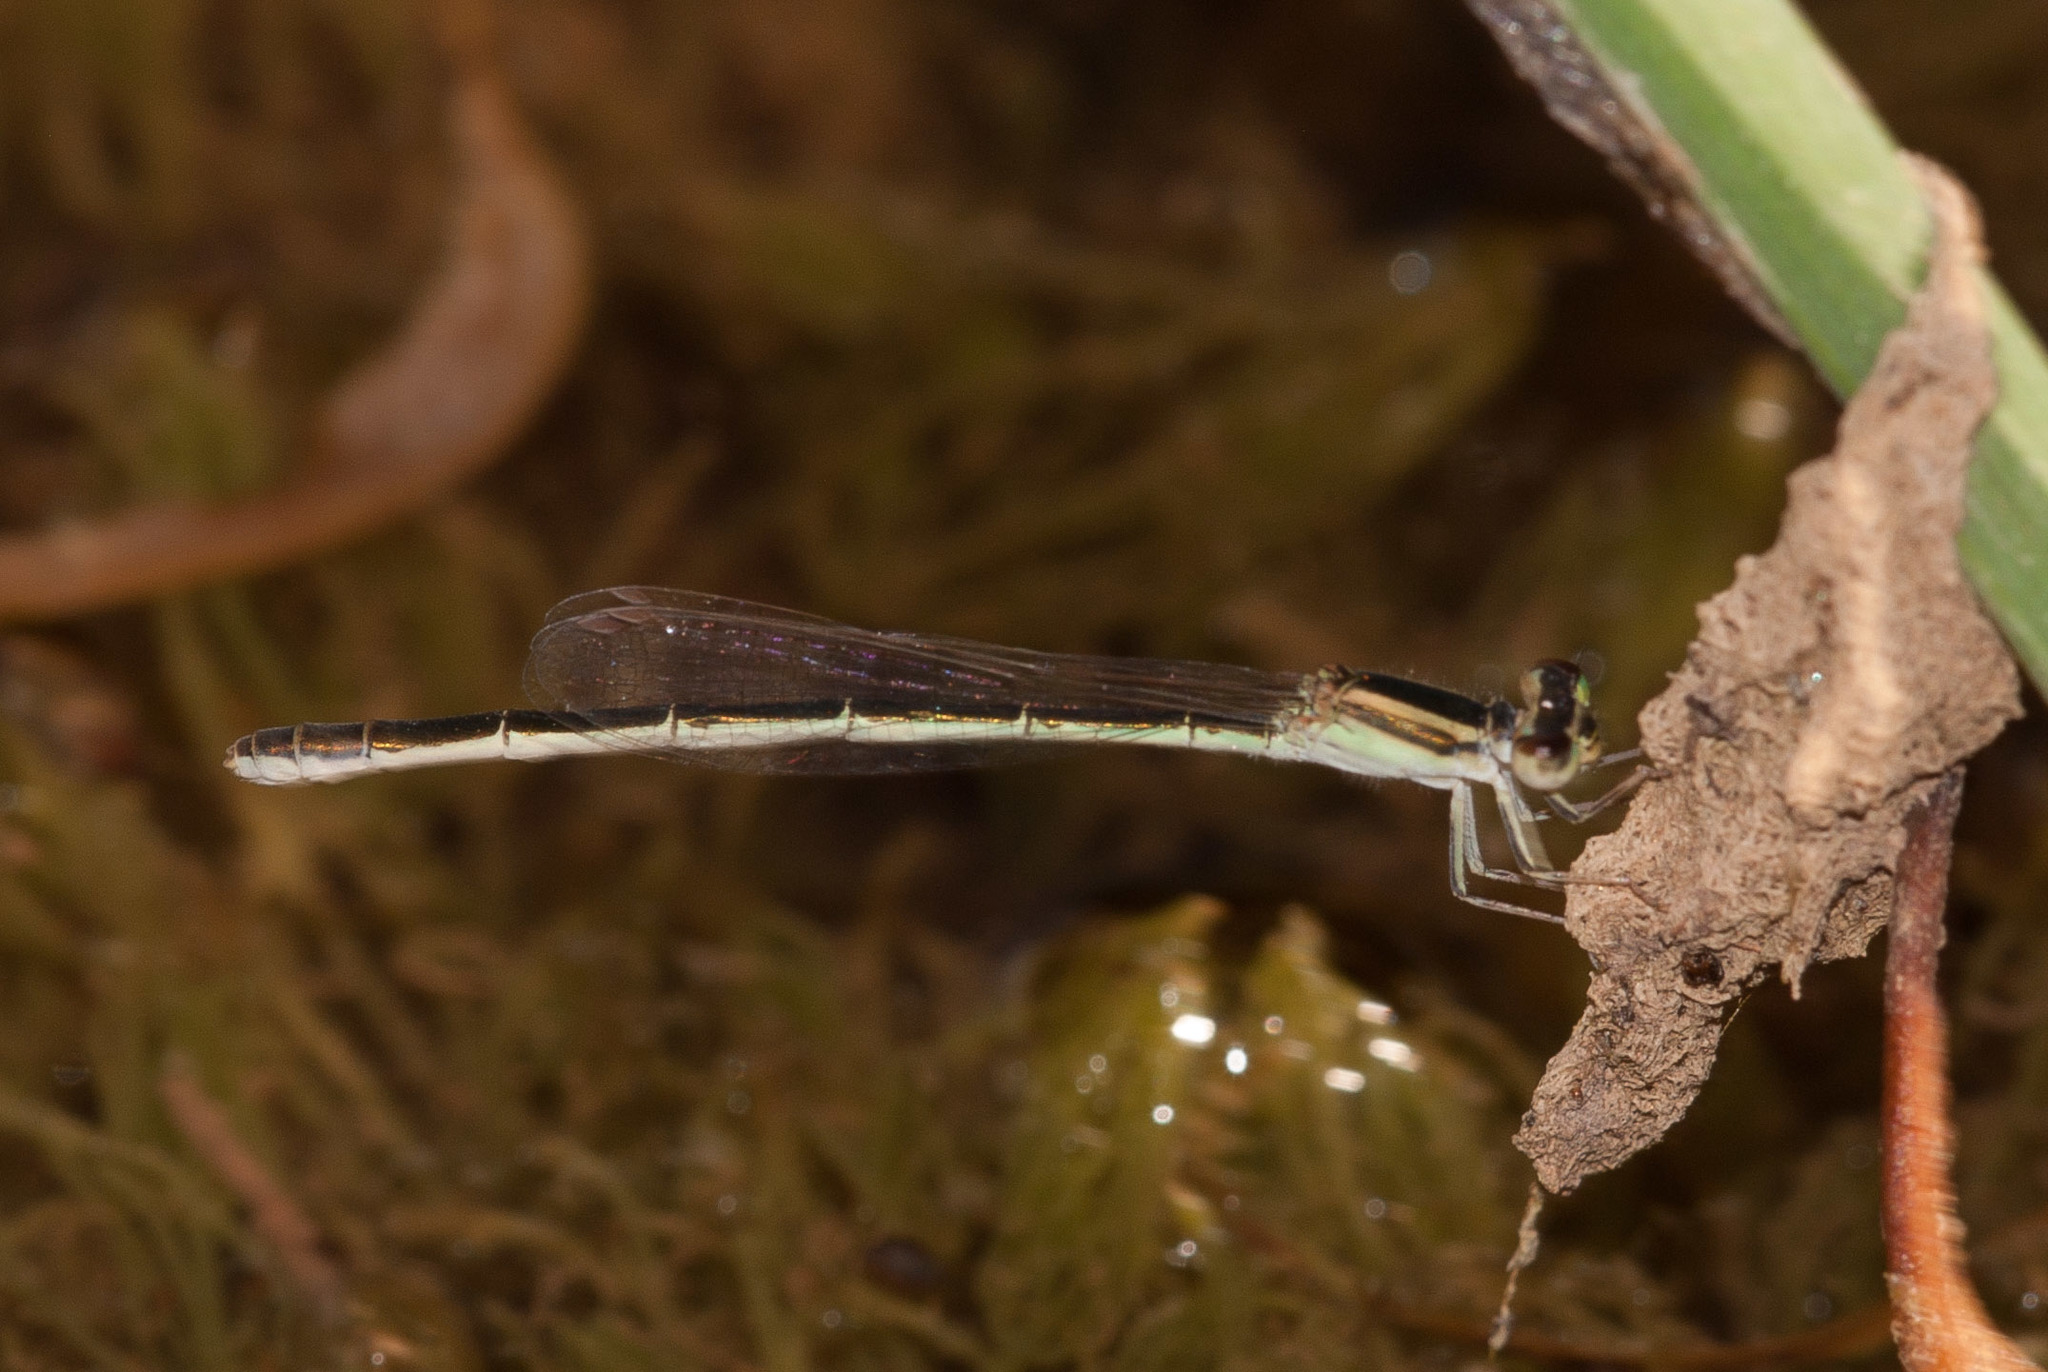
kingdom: Animalia
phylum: Arthropoda
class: Insecta
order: Odonata
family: Coenagrionidae
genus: Ischnura
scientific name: Ischnura aurora
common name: Gossamer damselfly
